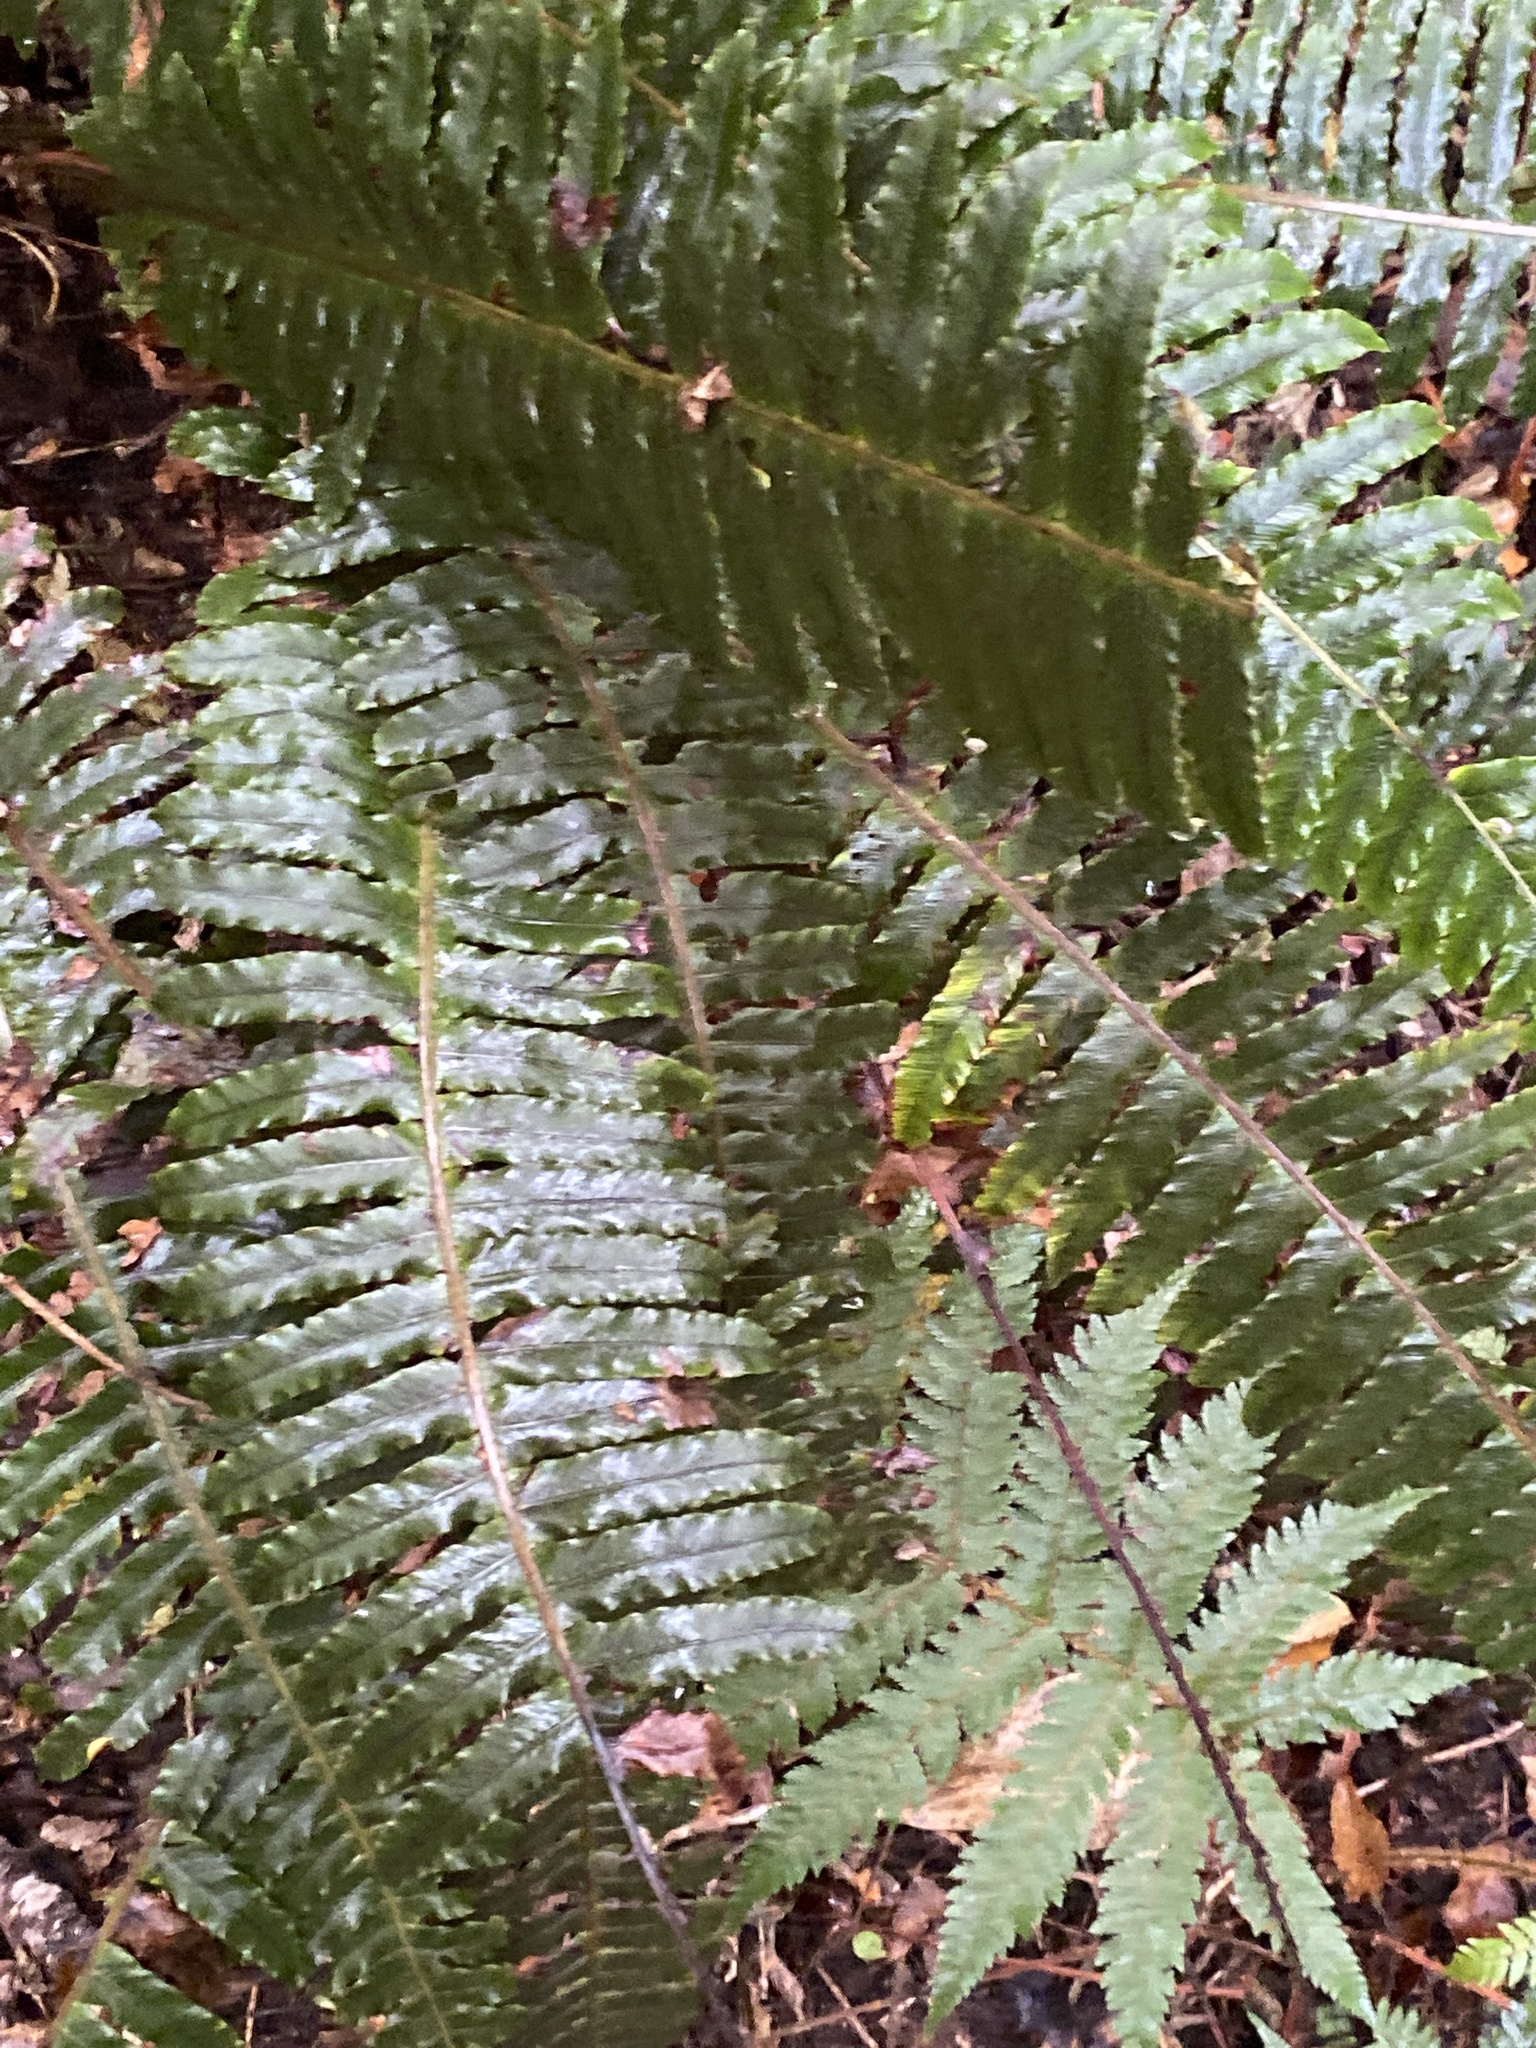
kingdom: Plantae
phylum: Tracheophyta
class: Polypodiopsida
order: Polypodiales
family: Blechnaceae
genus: Lomaria
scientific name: Lomaria discolor
